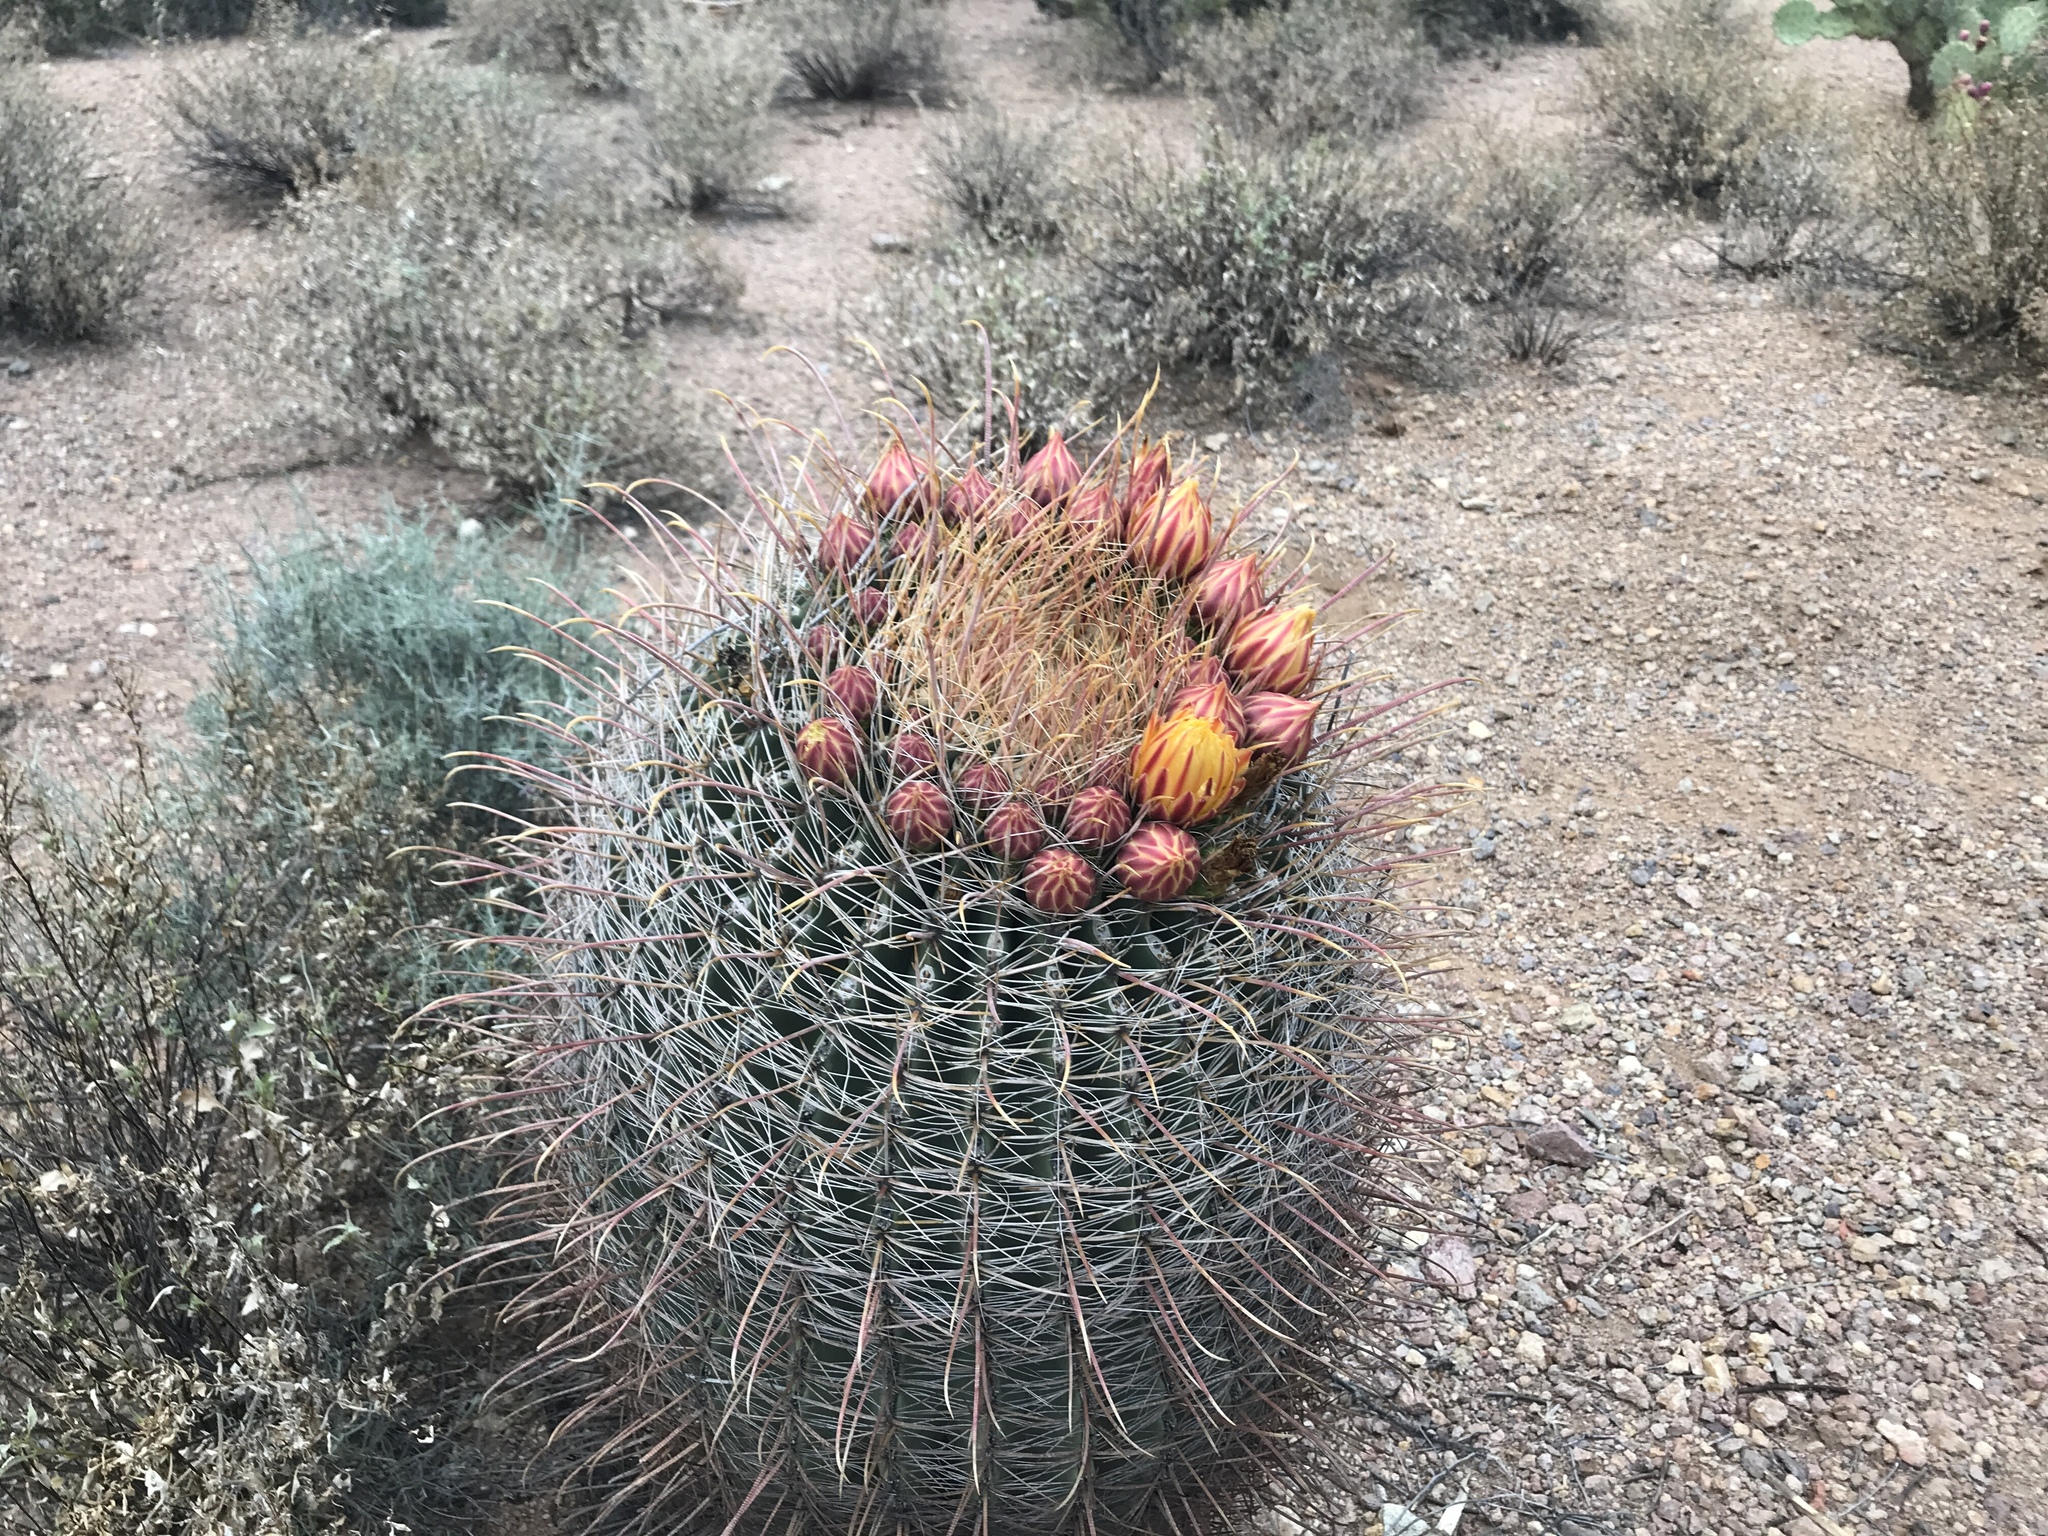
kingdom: Plantae
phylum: Tracheophyta
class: Magnoliopsida
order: Caryophyllales
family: Cactaceae
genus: Ferocactus
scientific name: Ferocactus wislizeni
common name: Candy barrel cactus
